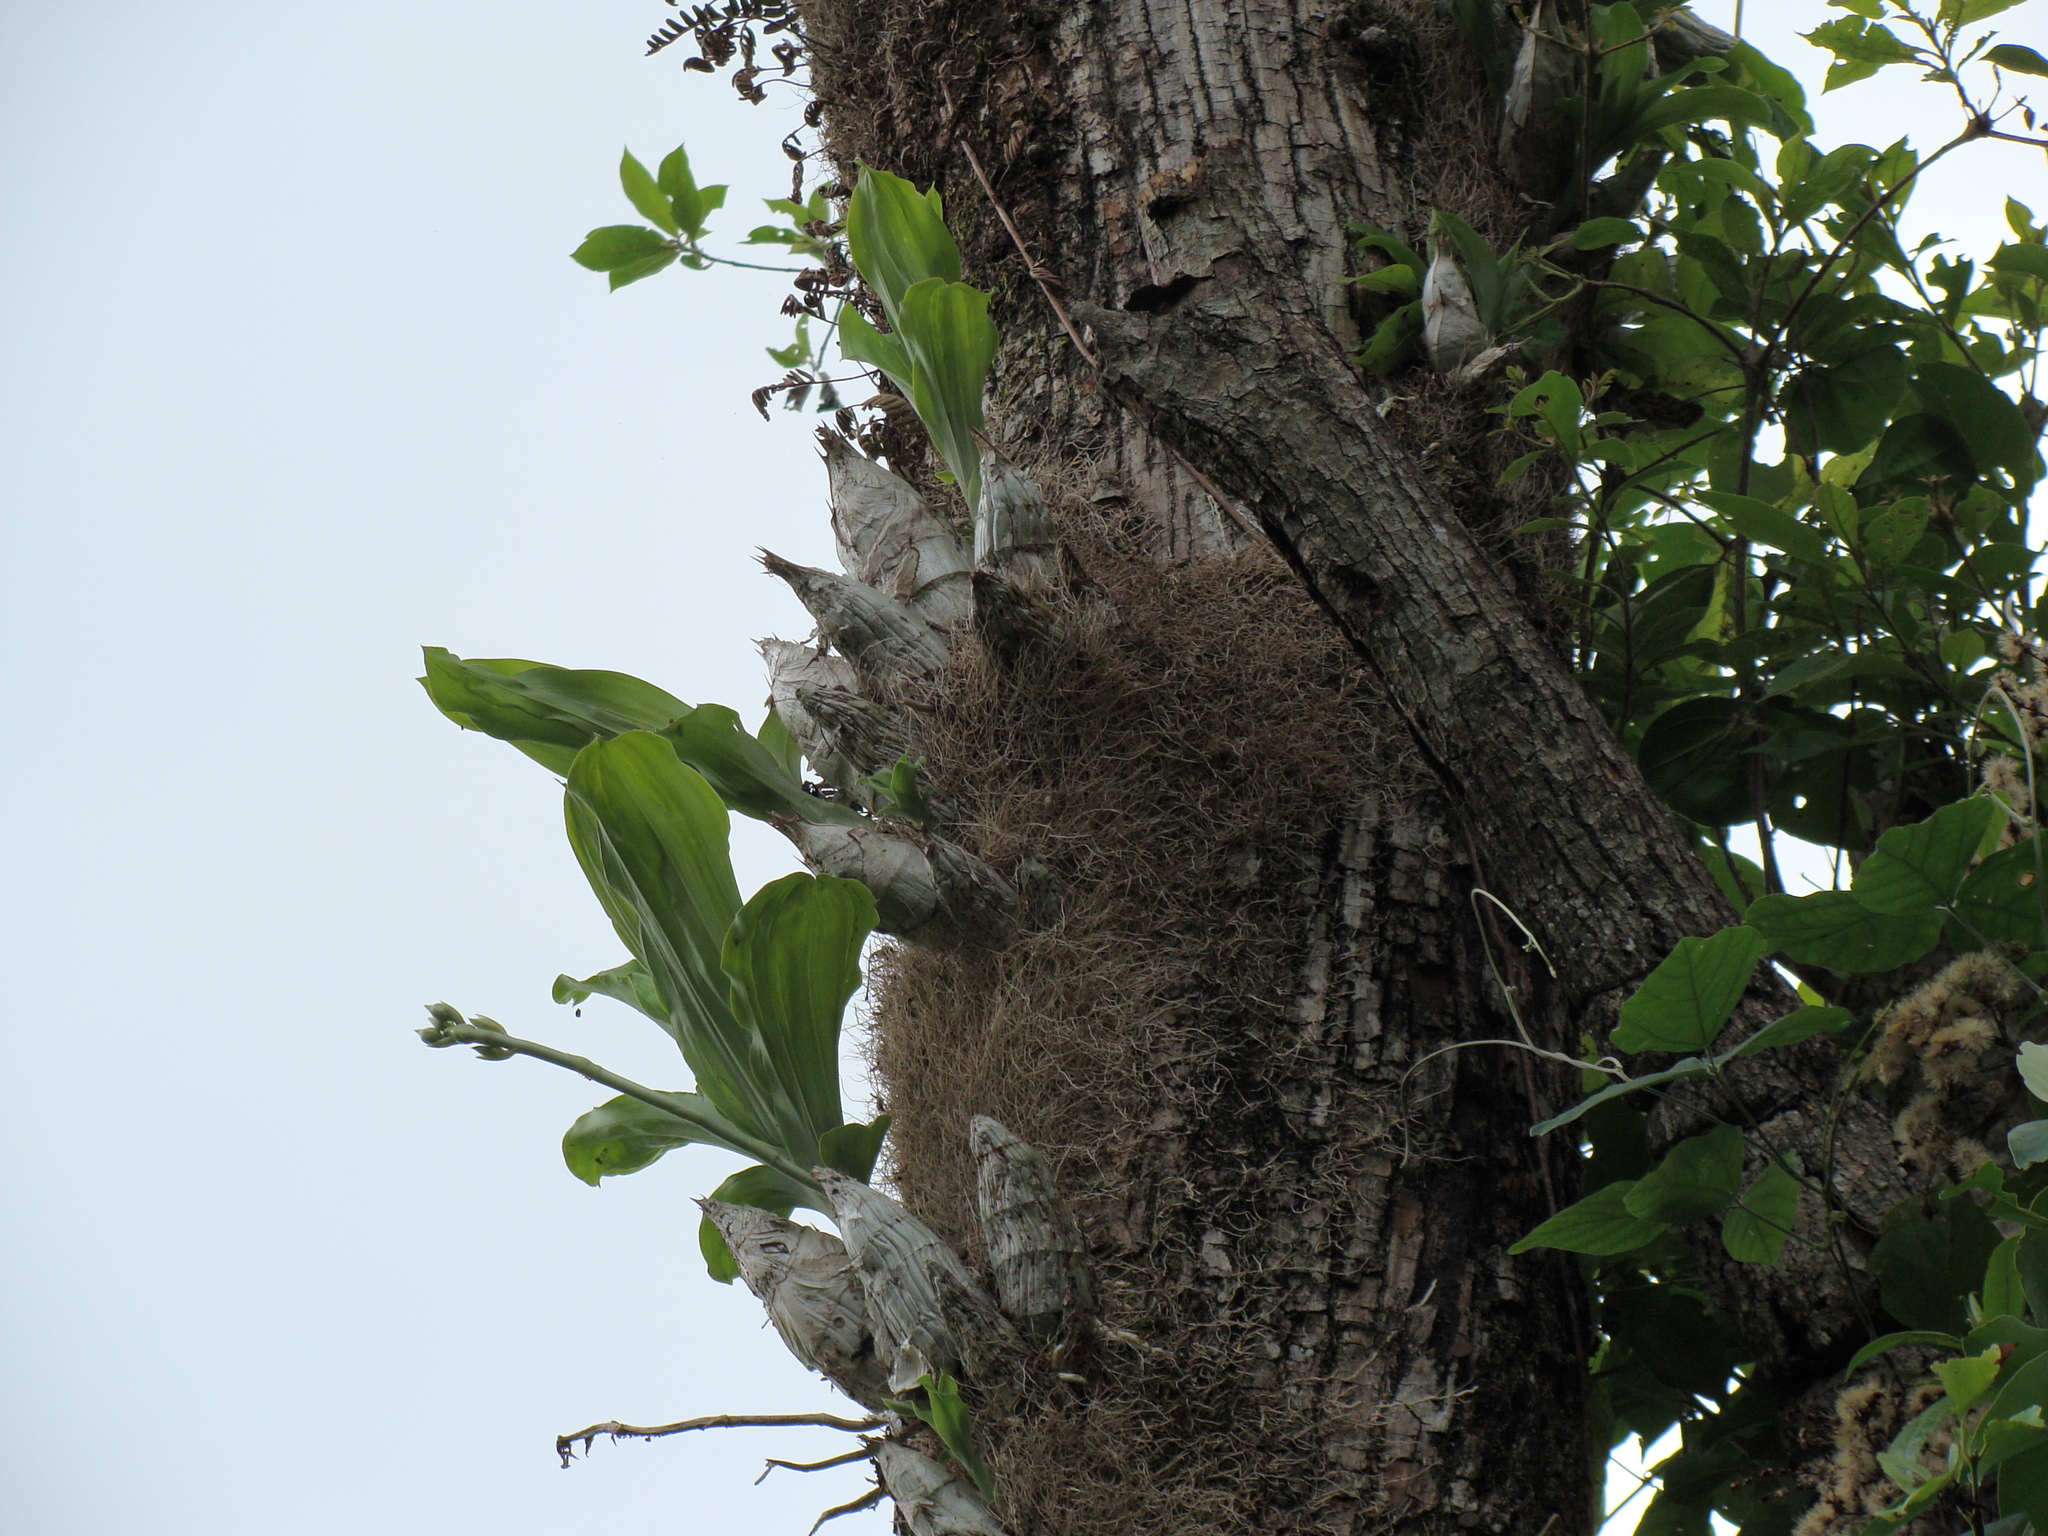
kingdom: Plantae
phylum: Tracheophyta
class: Liliopsida
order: Asparagales
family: Orchidaceae
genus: Catasetum
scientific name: Catasetum integerrimum
